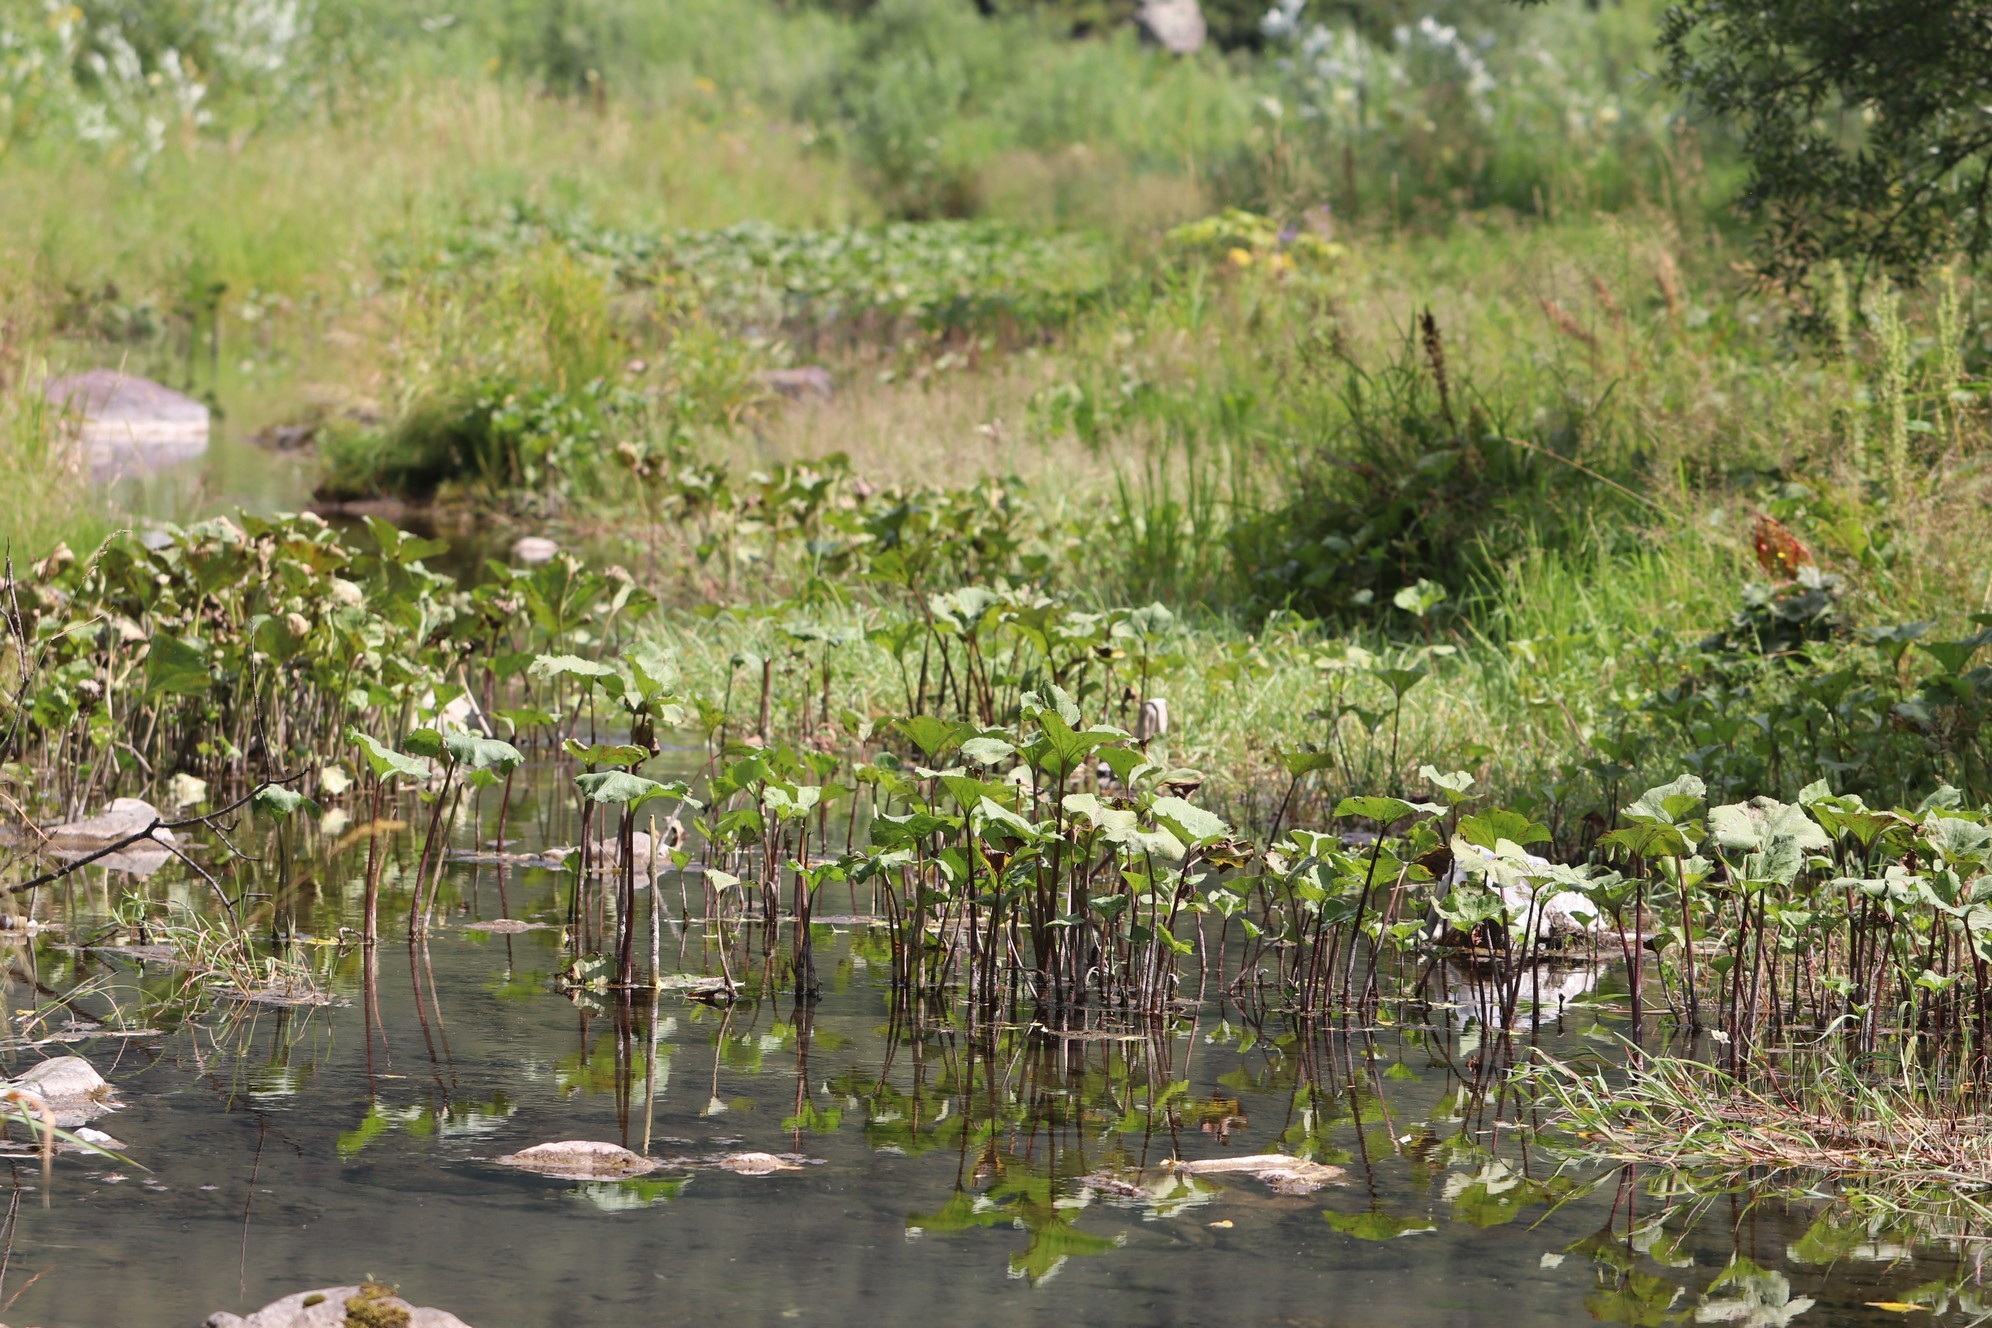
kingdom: Plantae
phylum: Tracheophyta
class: Magnoliopsida
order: Asterales
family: Asteraceae
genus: Petasites
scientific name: Petasites radiatus
